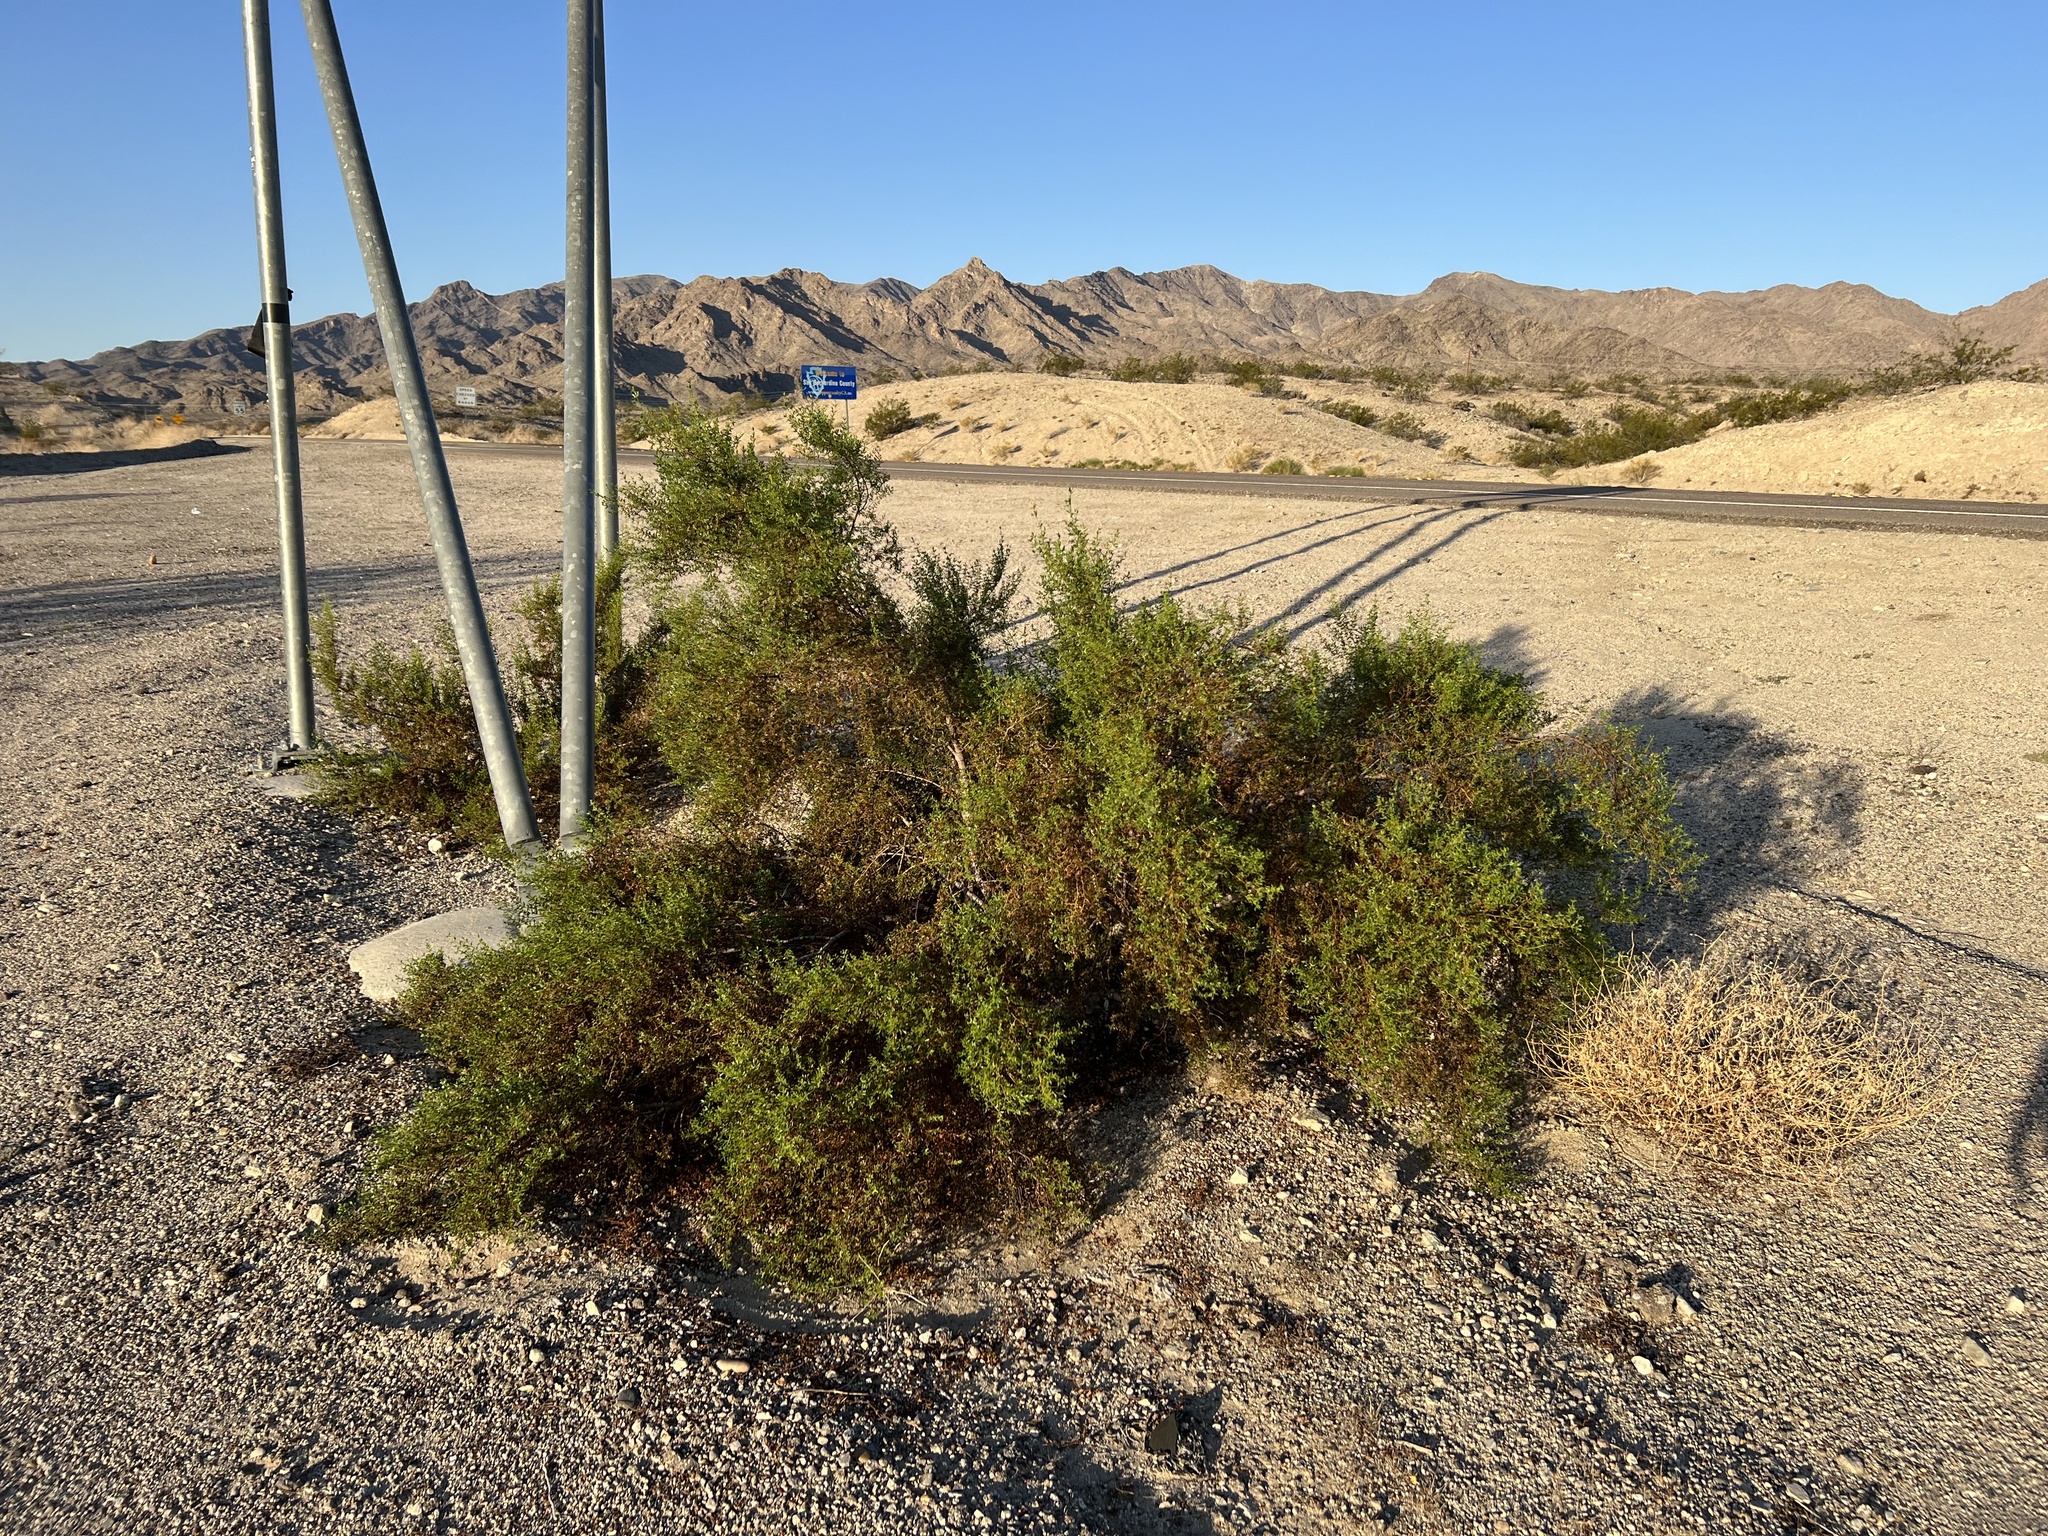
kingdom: Plantae
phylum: Tracheophyta
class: Magnoliopsida
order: Zygophyllales
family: Zygophyllaceae
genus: Larrea
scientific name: Larrea tridentata
